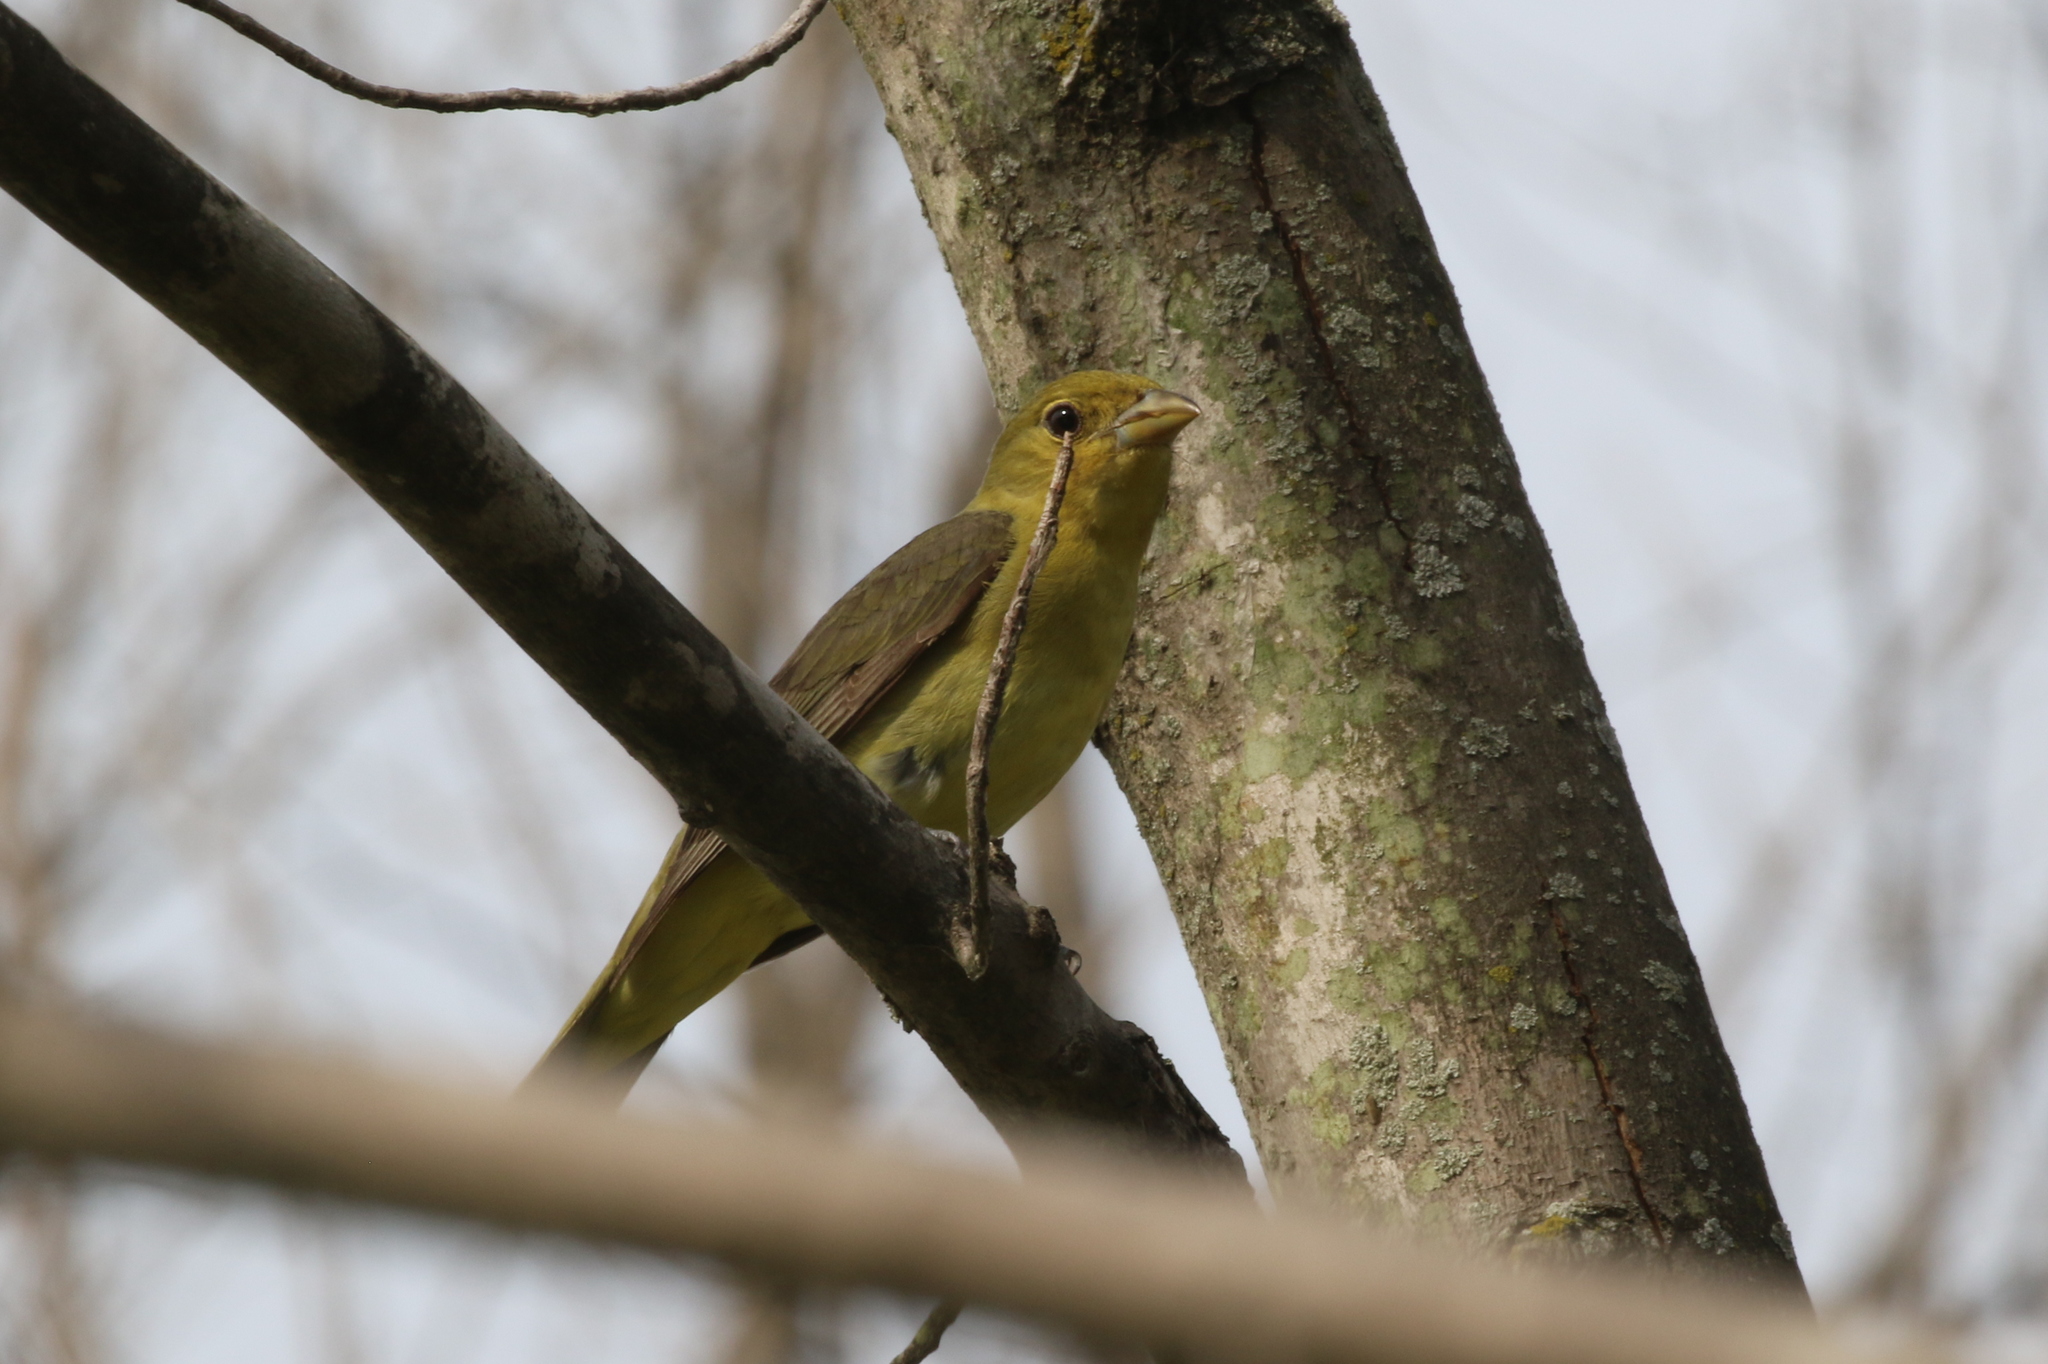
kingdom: Animalia
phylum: Chordata
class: Aves
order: Passeriformes
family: Cardinalidae
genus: Piranga
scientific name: Piranga olivacea
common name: Scarlet tanager
